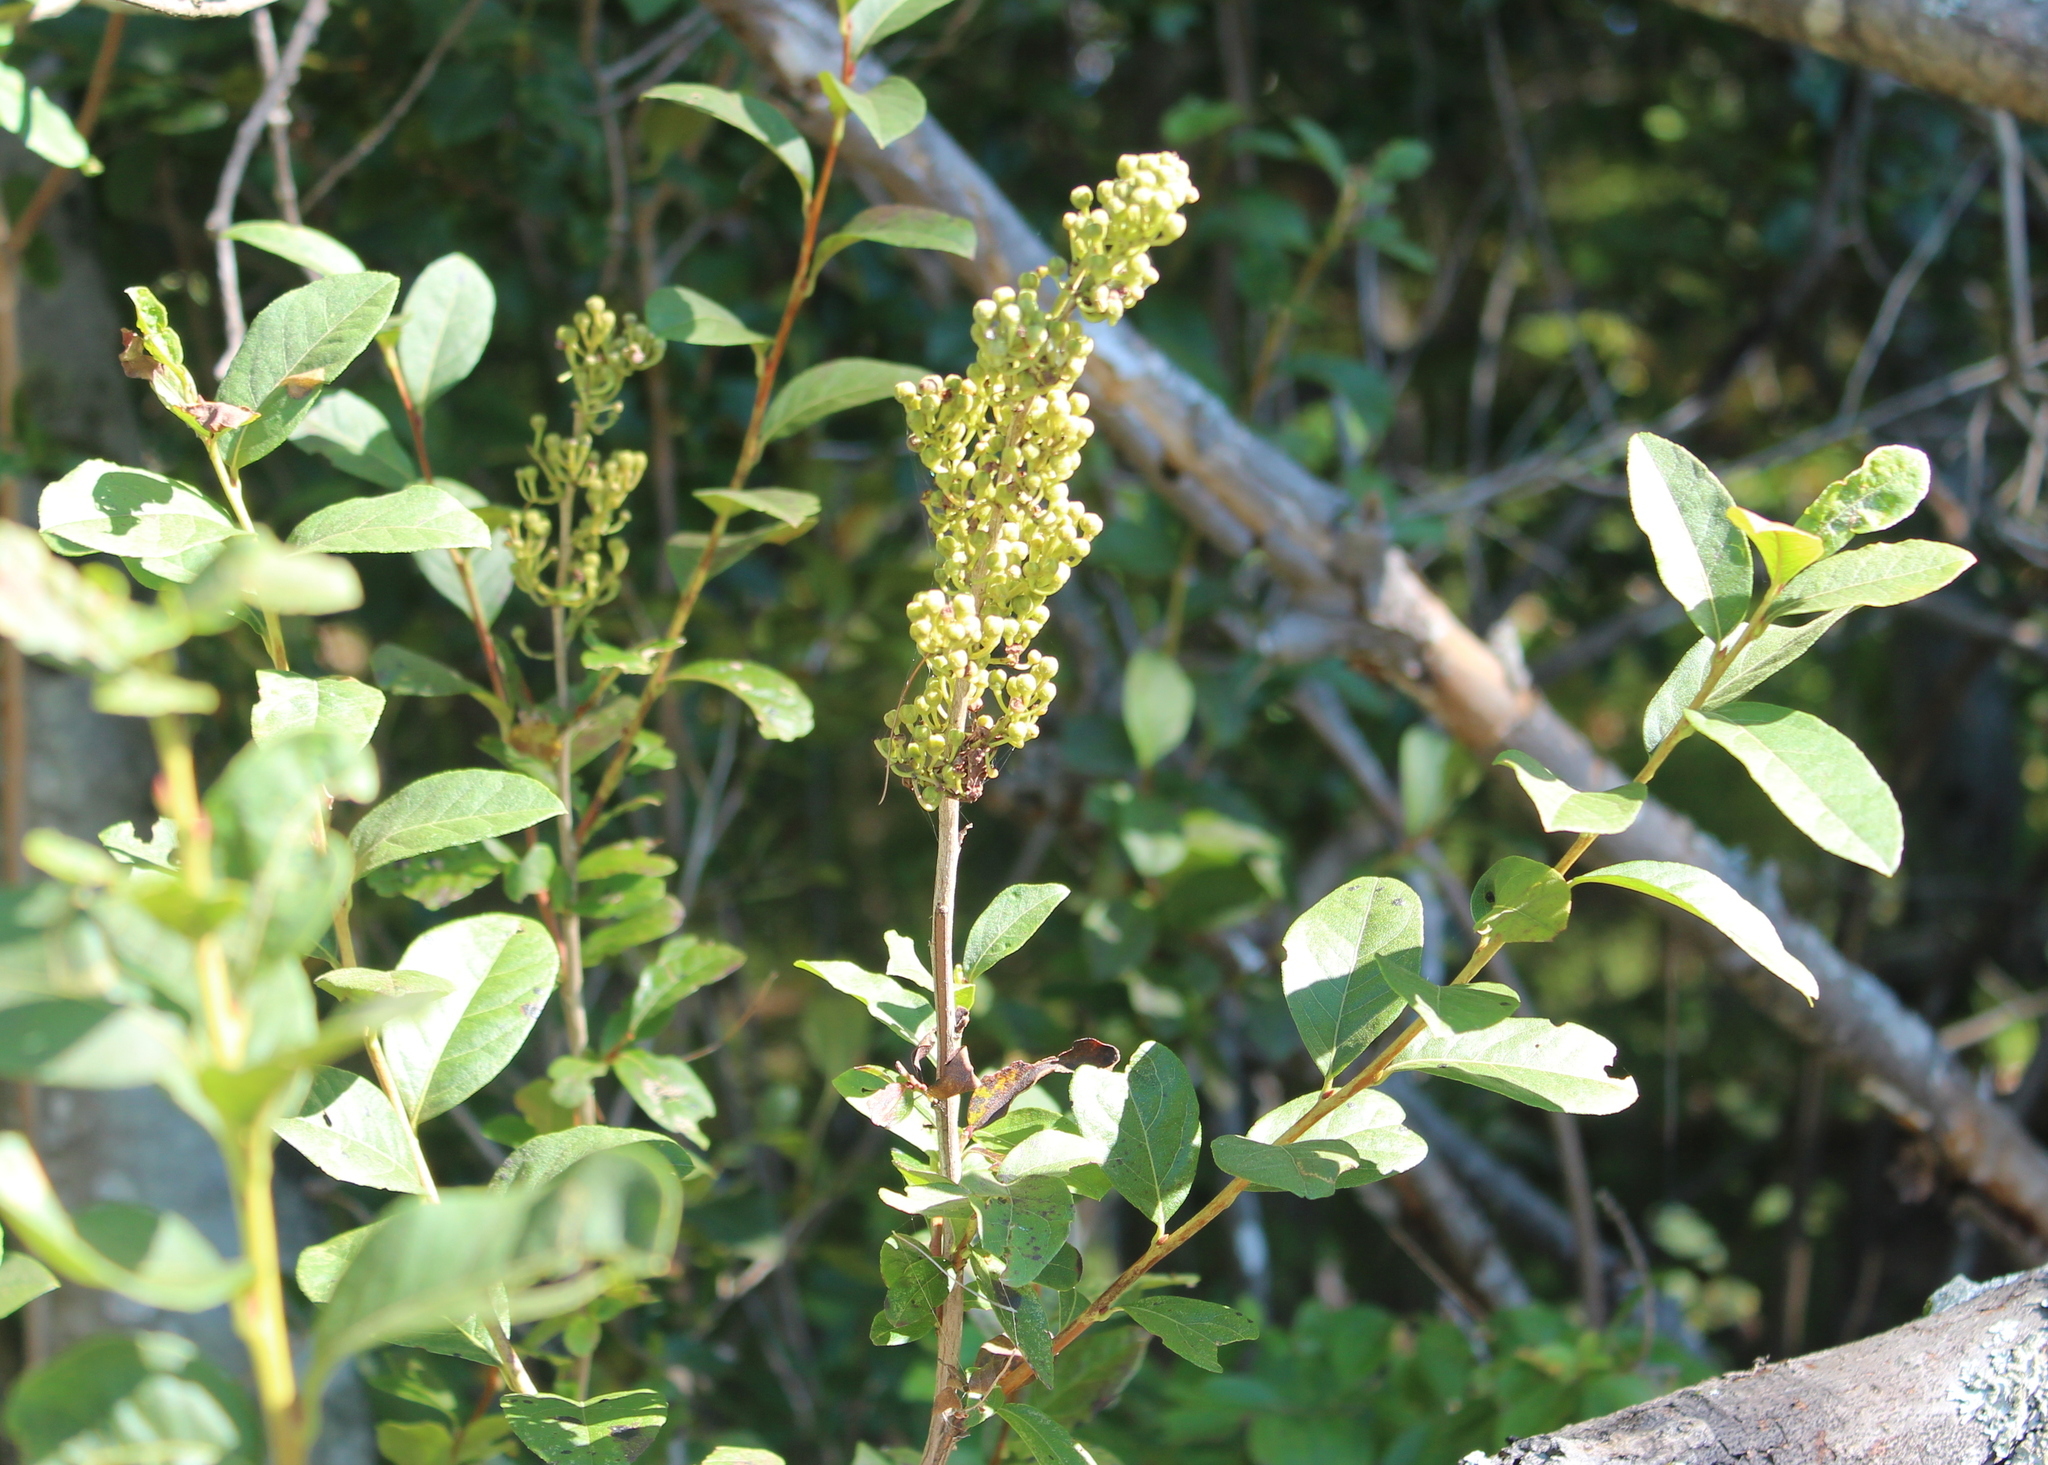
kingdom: Plantae
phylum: Tracheophyta
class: Magnoliopsida
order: Ericales
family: Ericaceae
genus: Lyonia
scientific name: Lyonia ligustrina
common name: Maleberry
